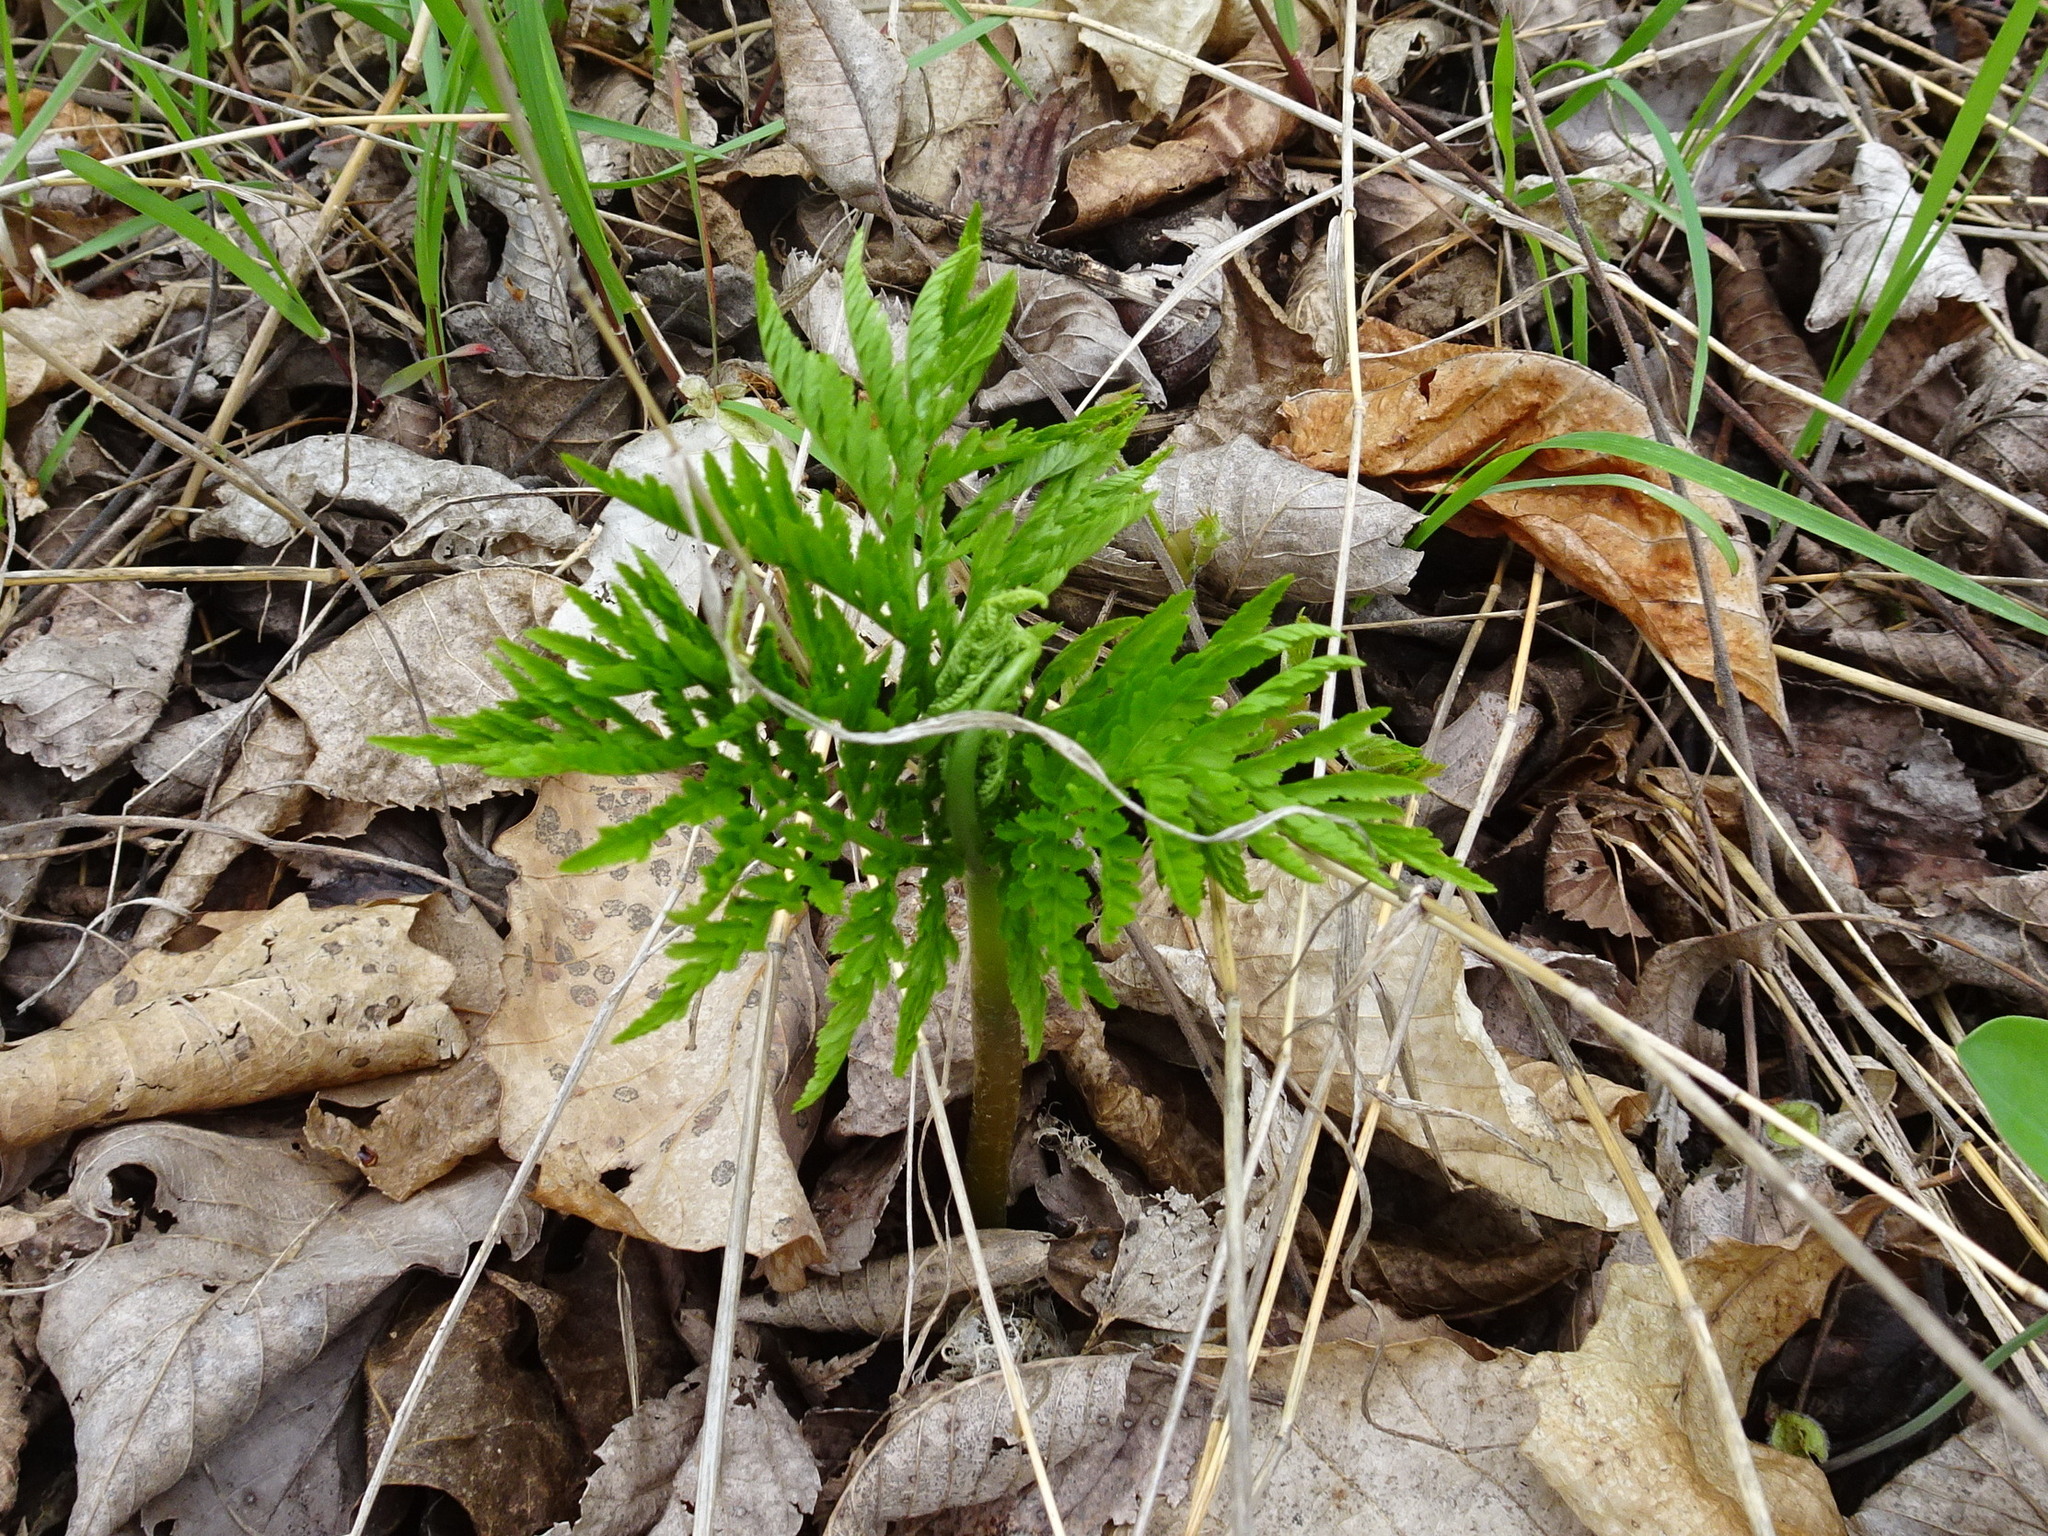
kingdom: Plantae
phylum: Tracheophyta
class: Polypodiopsida
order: Ophioglossales
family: Ophioglossaceae
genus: Botrypus
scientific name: Botrypus virginianus
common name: Common grapefern
